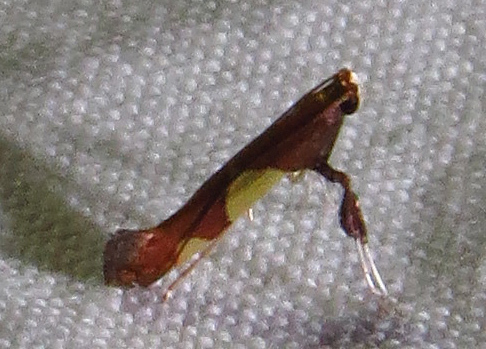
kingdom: Animalia
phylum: Arthropoda
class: Insecta
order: Lepidoptera
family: Gracillariidae
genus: Caloptilia
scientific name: Caloptilia bimaculatella
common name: Maple caloptilia moth
